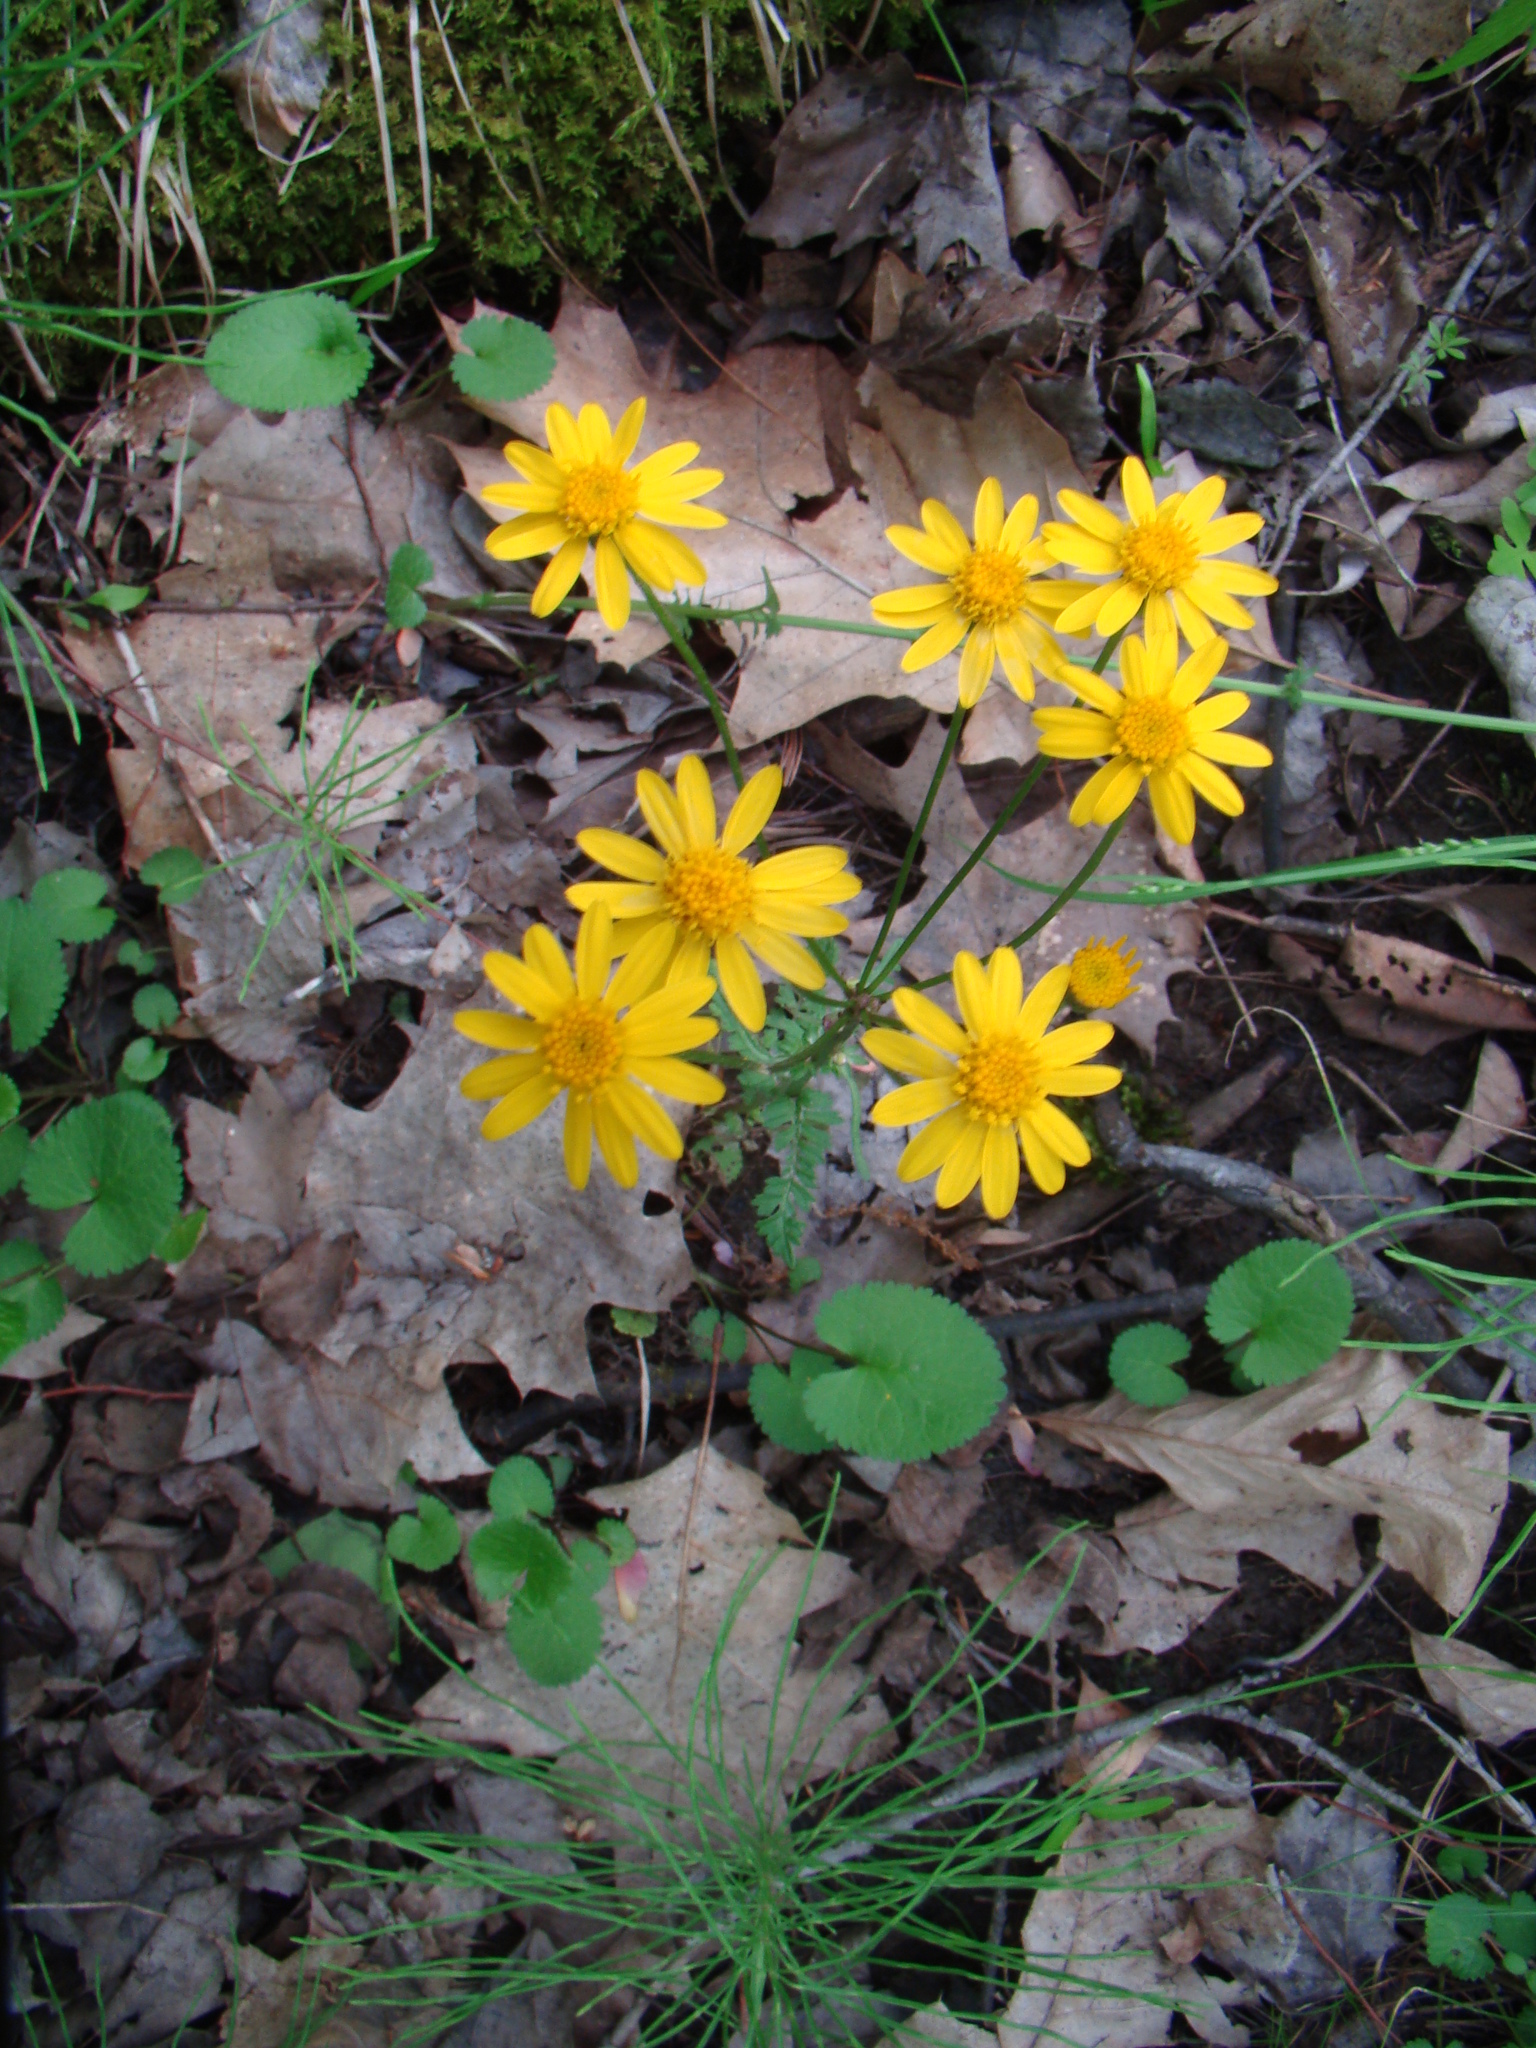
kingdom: Plantae
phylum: Tracheophyta
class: Magnoliopsida
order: Asterales
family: Asteraceae
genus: Packera
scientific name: Packera aurea
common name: Golden groundsel
